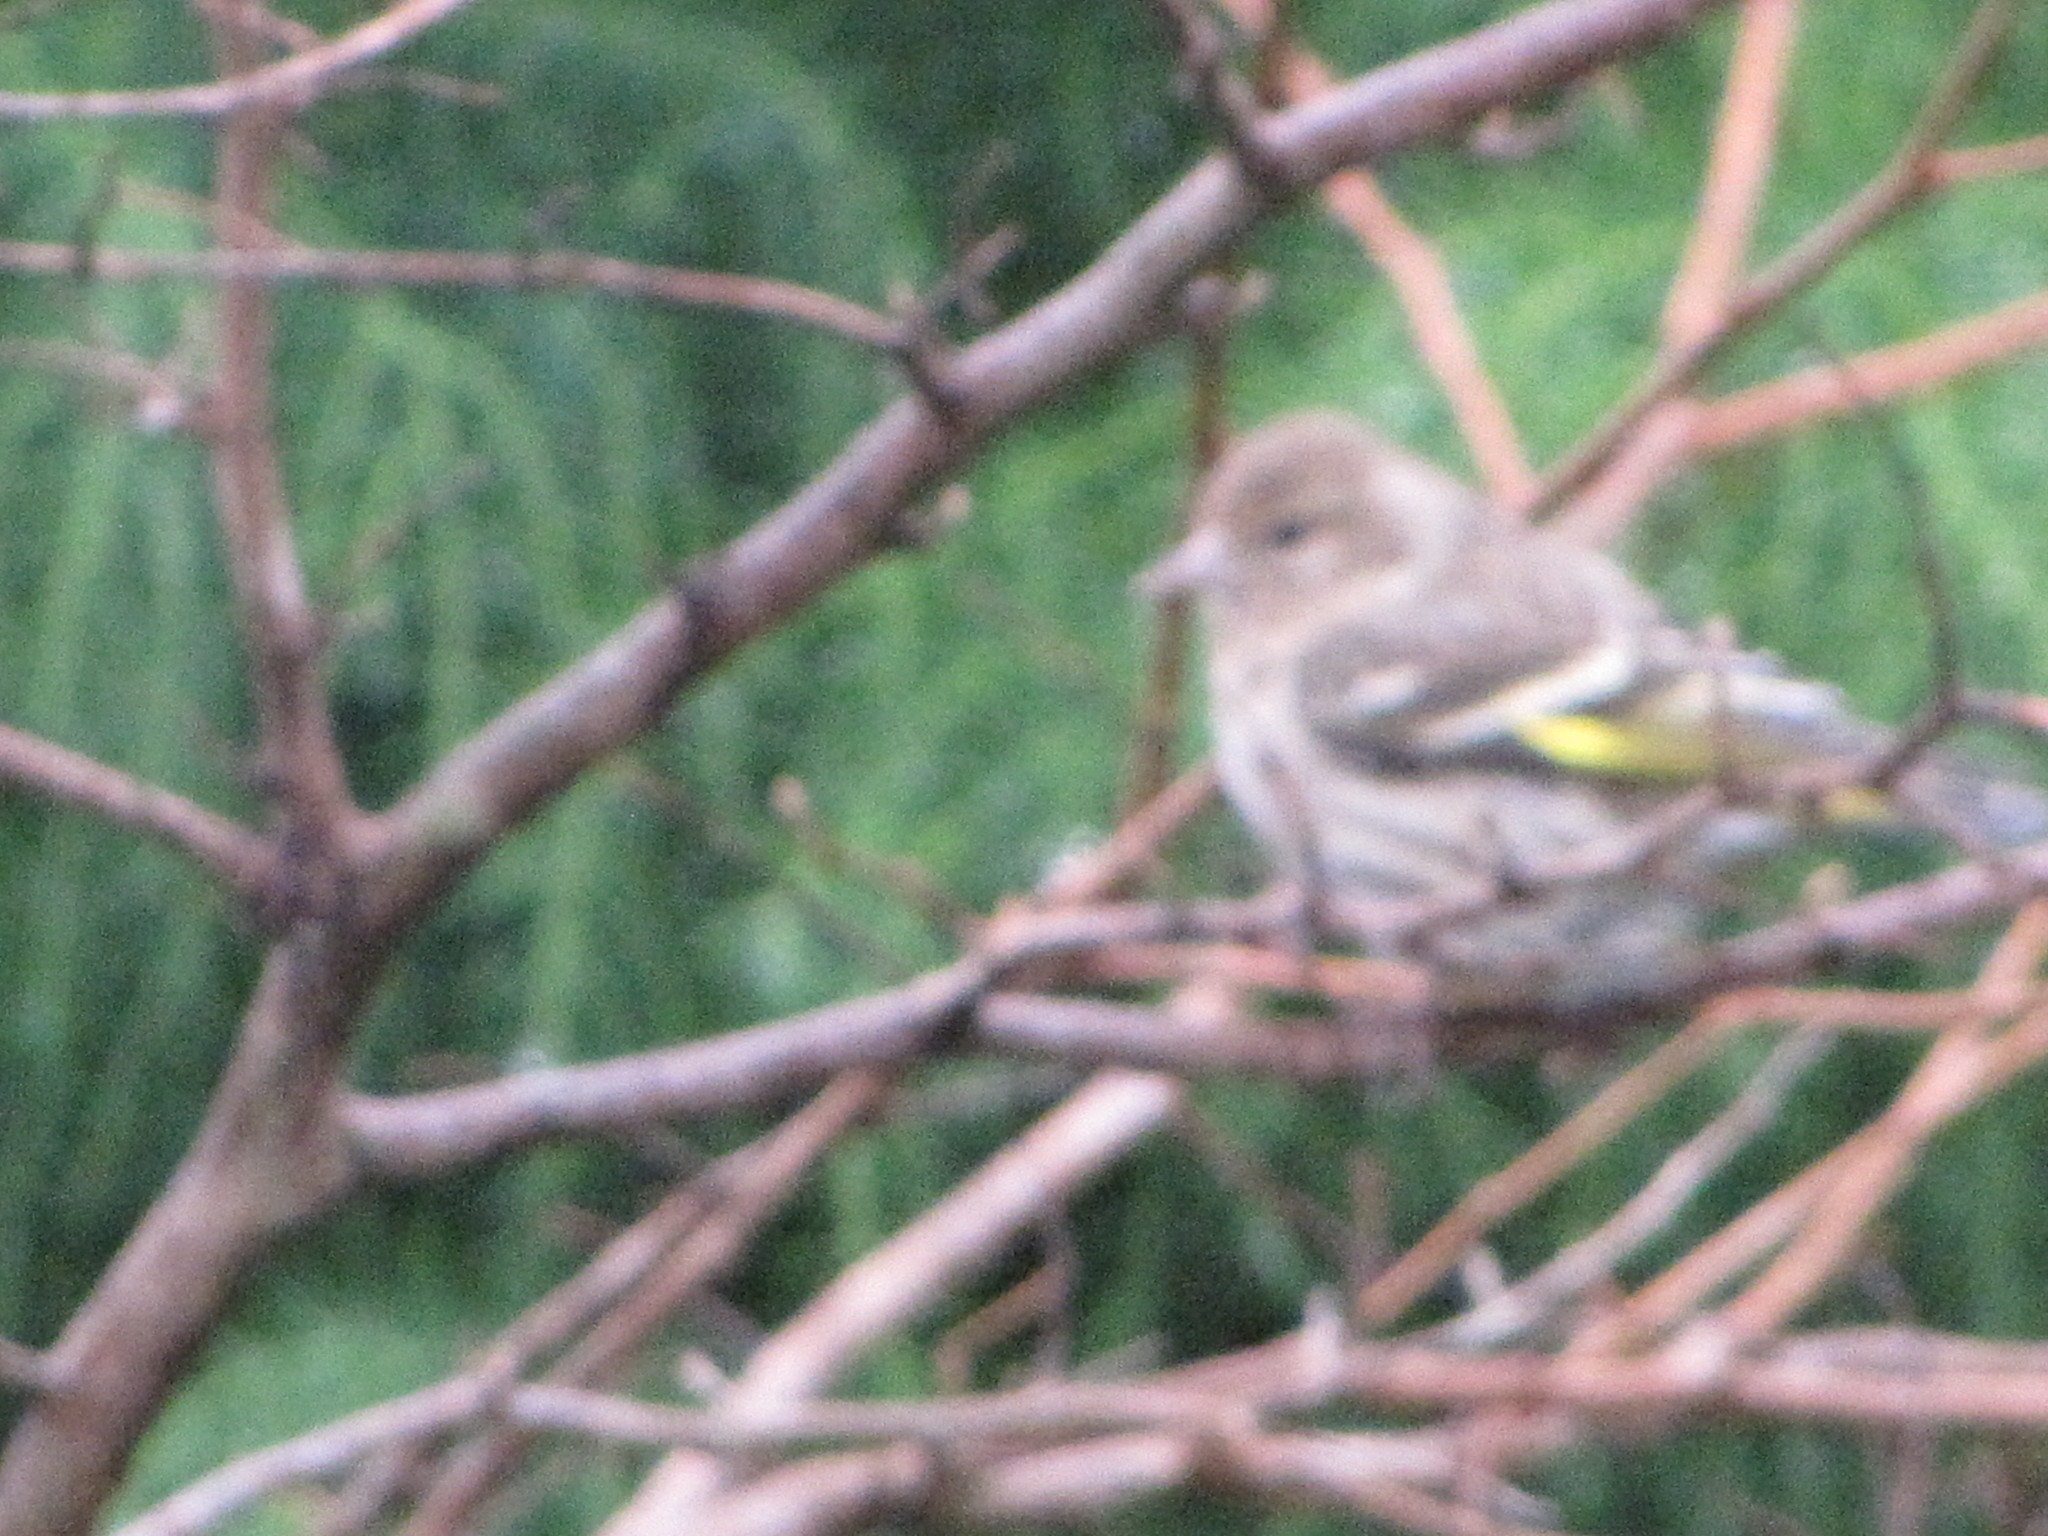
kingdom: Animalia
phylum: Chordata
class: Aves
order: Passeriformes
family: Fringillidae
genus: Spinus
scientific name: Spinus pinus
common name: Pine siskin
